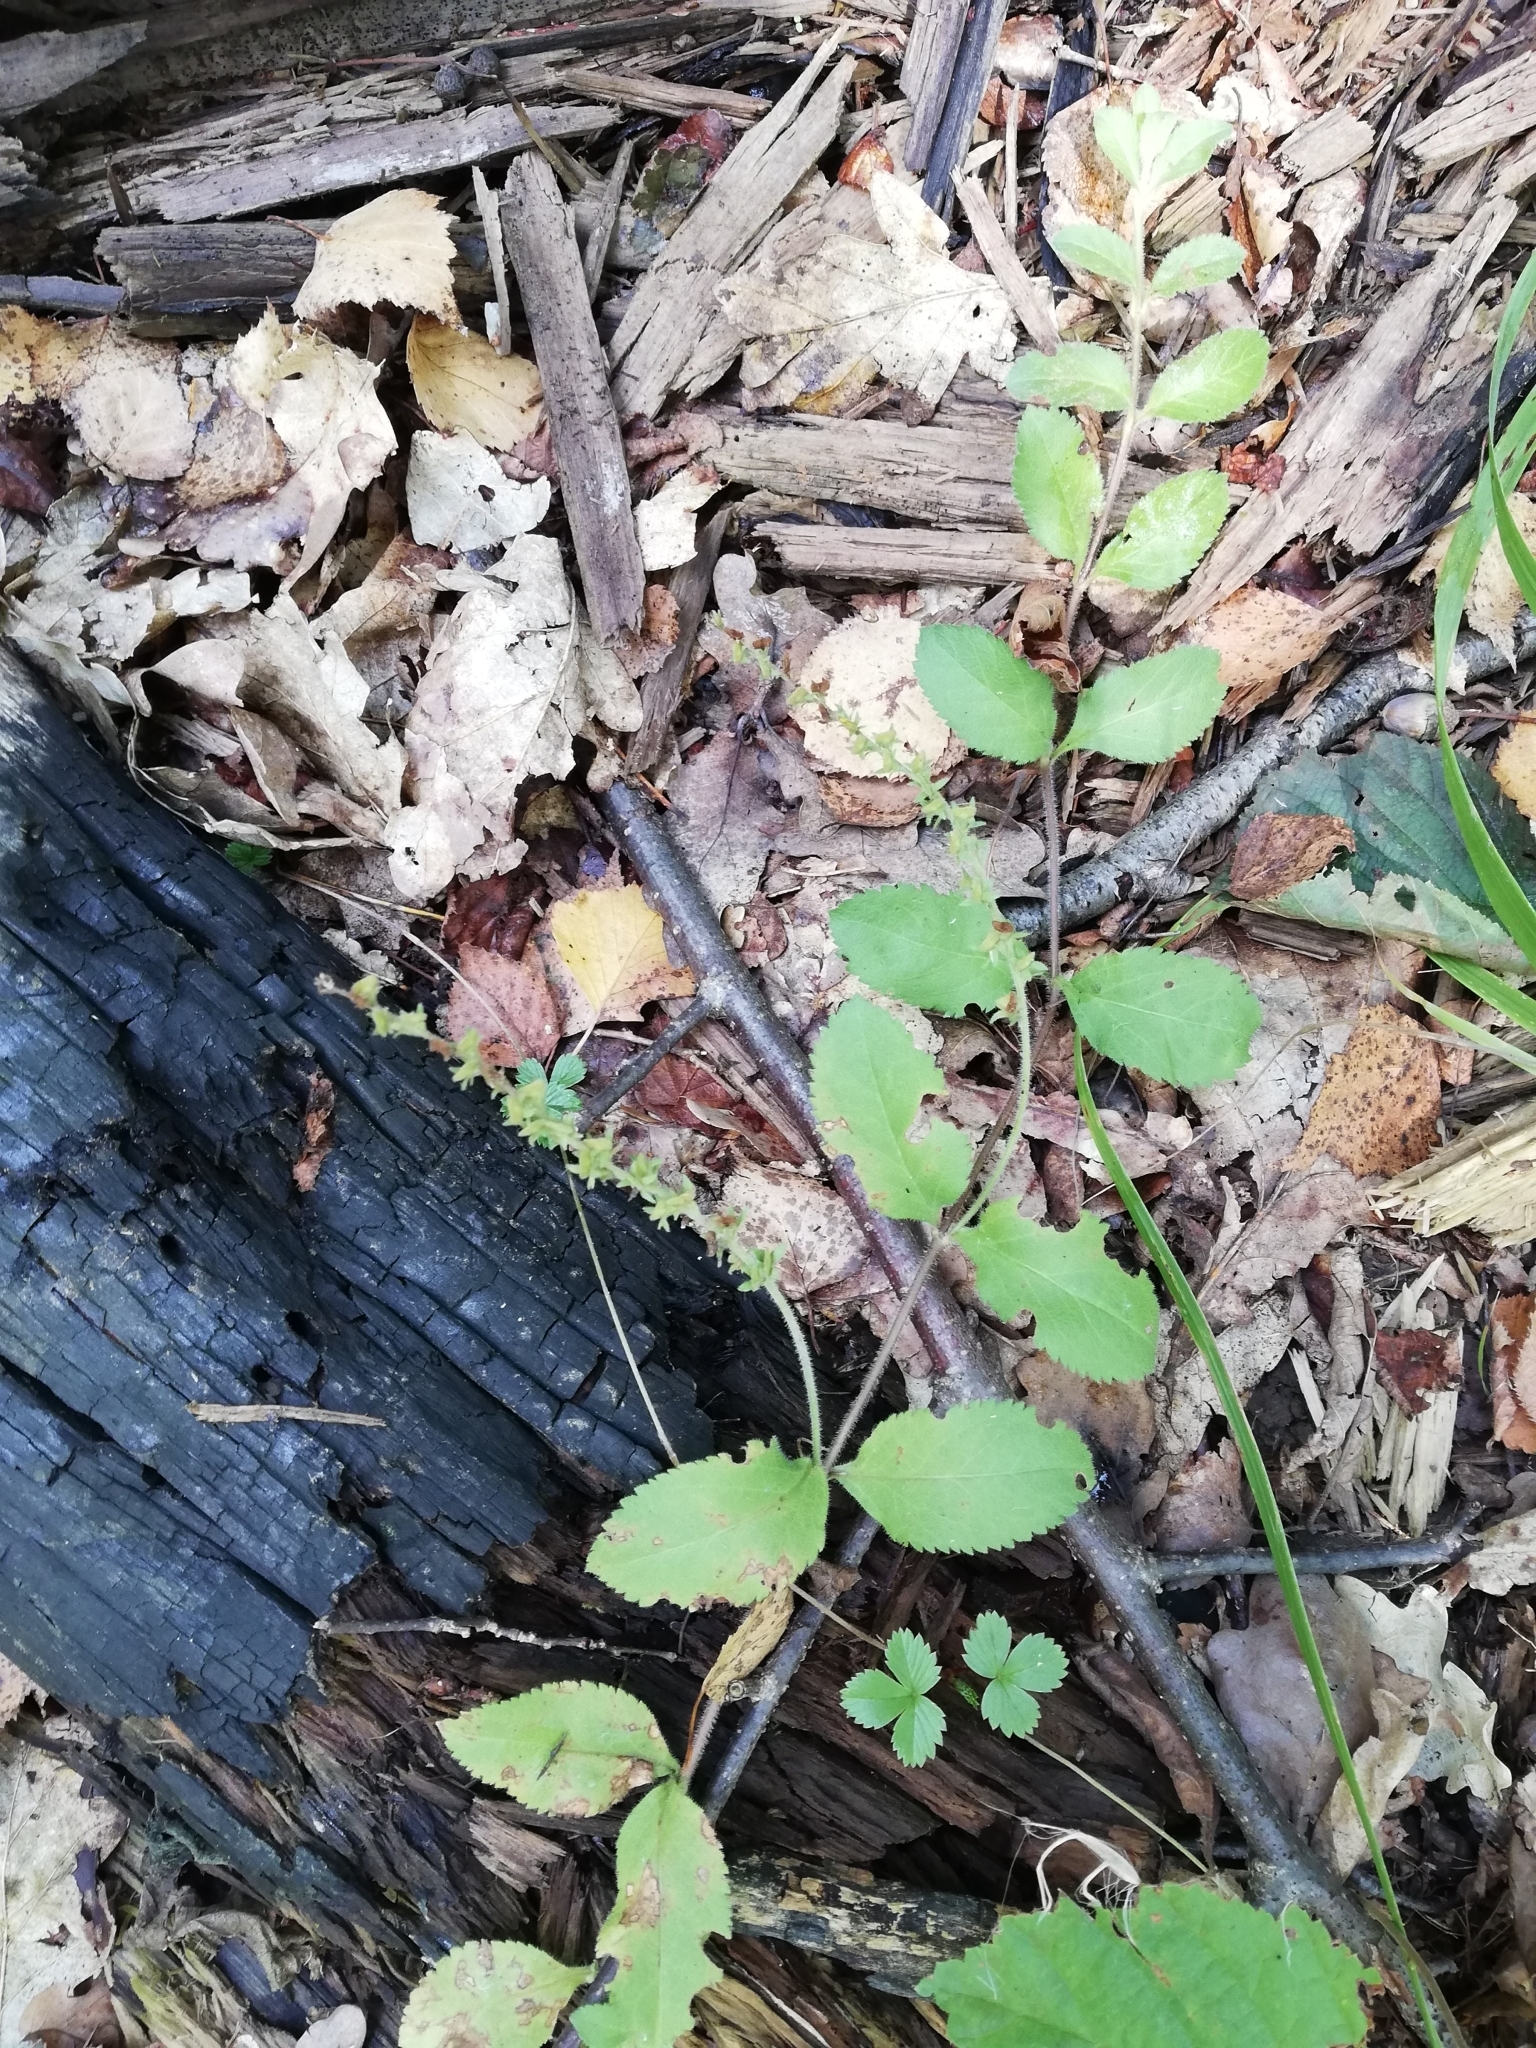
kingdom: Plantae
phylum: Tracheophyta
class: Magnoliopsida
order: Lamiales
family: Plantaginaceae
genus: Veronica
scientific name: Veronica officinalis
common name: Common speedwell
